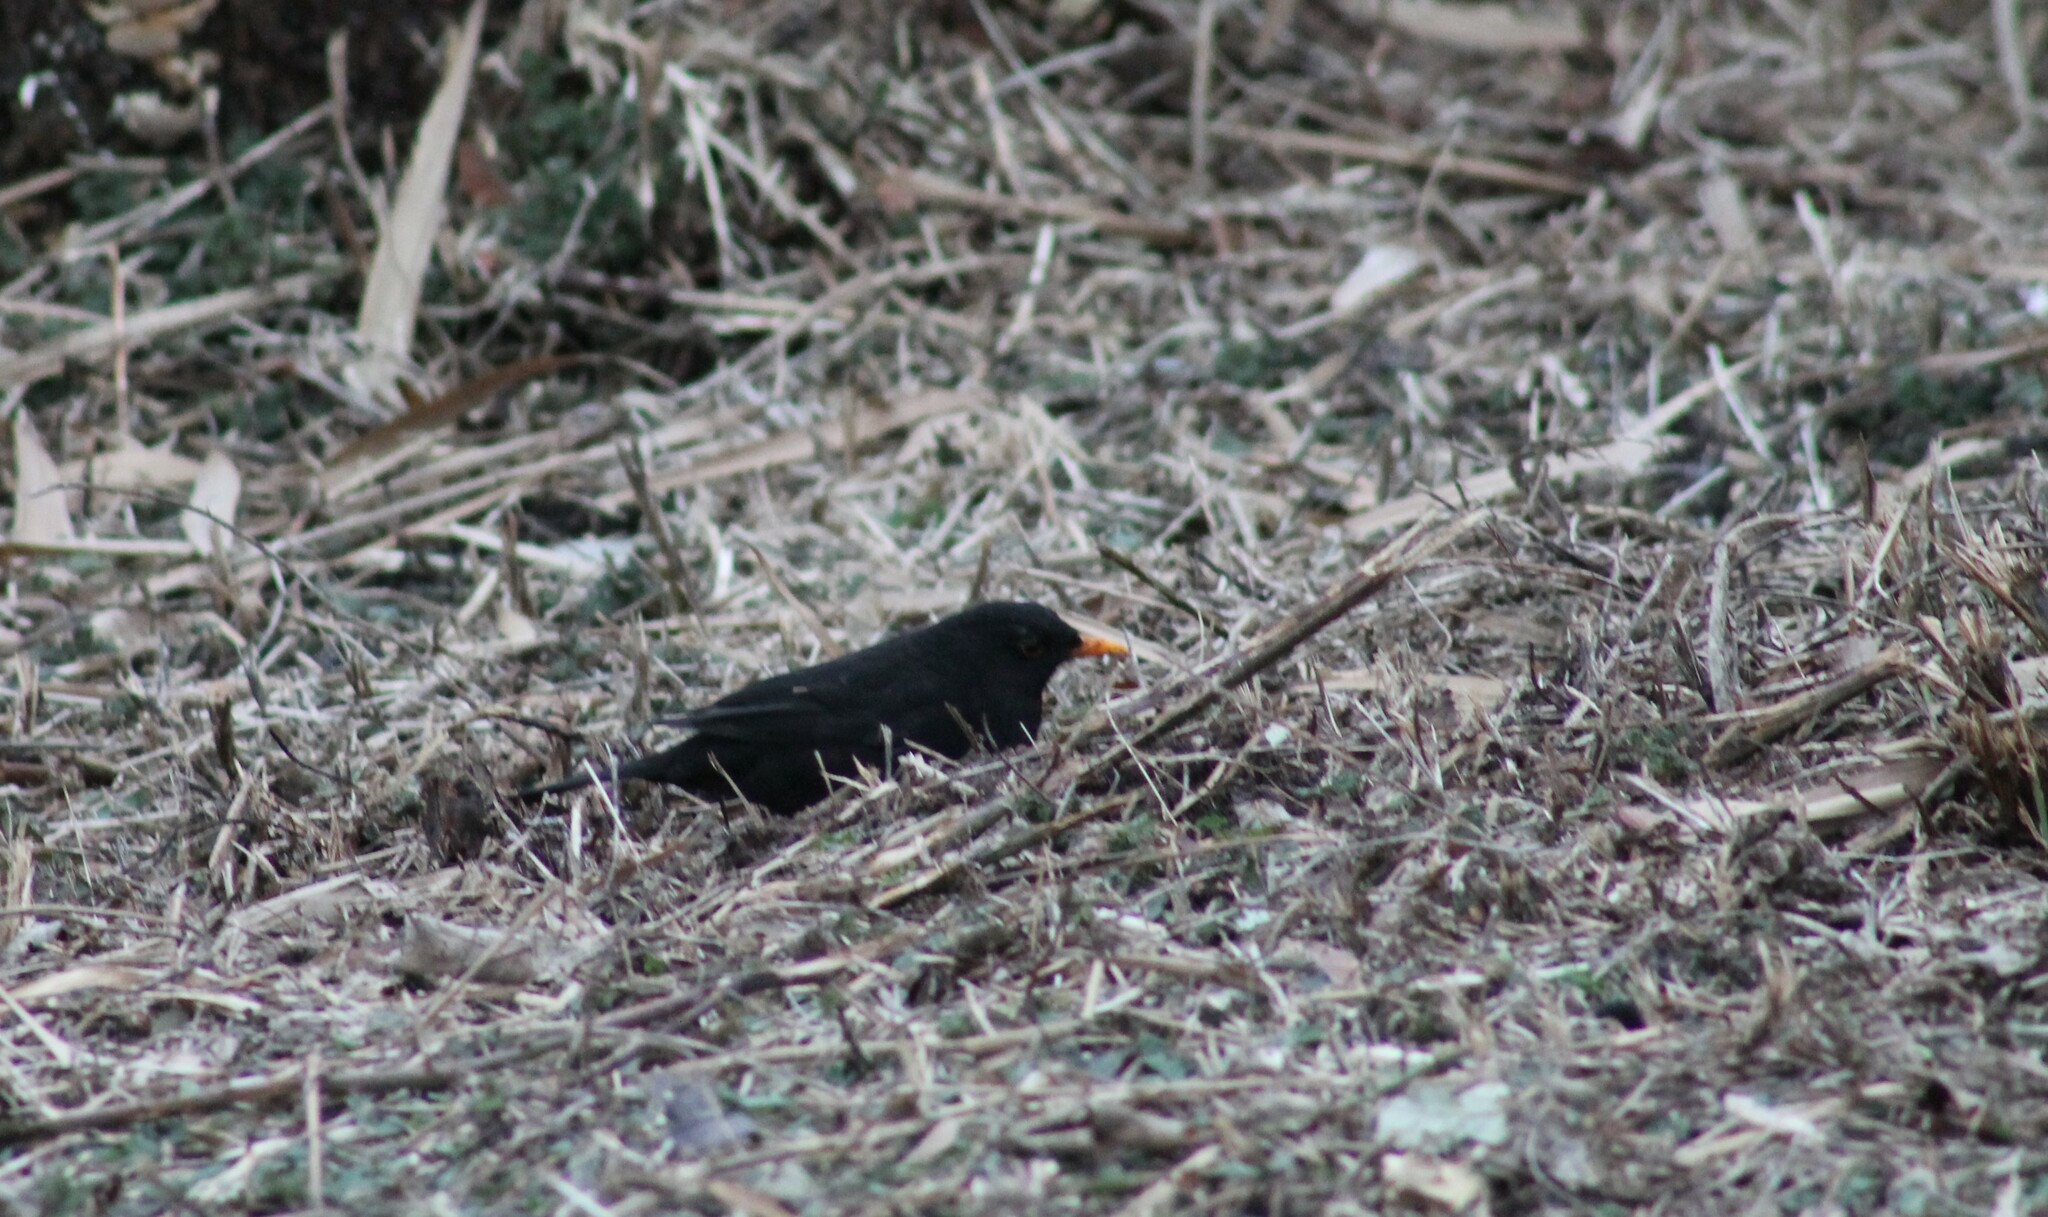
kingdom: Animalia
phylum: Chordata
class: Aves
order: Passeriformes
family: Turdidae
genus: Turdus
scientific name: Turdus merula
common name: Common blackbird
